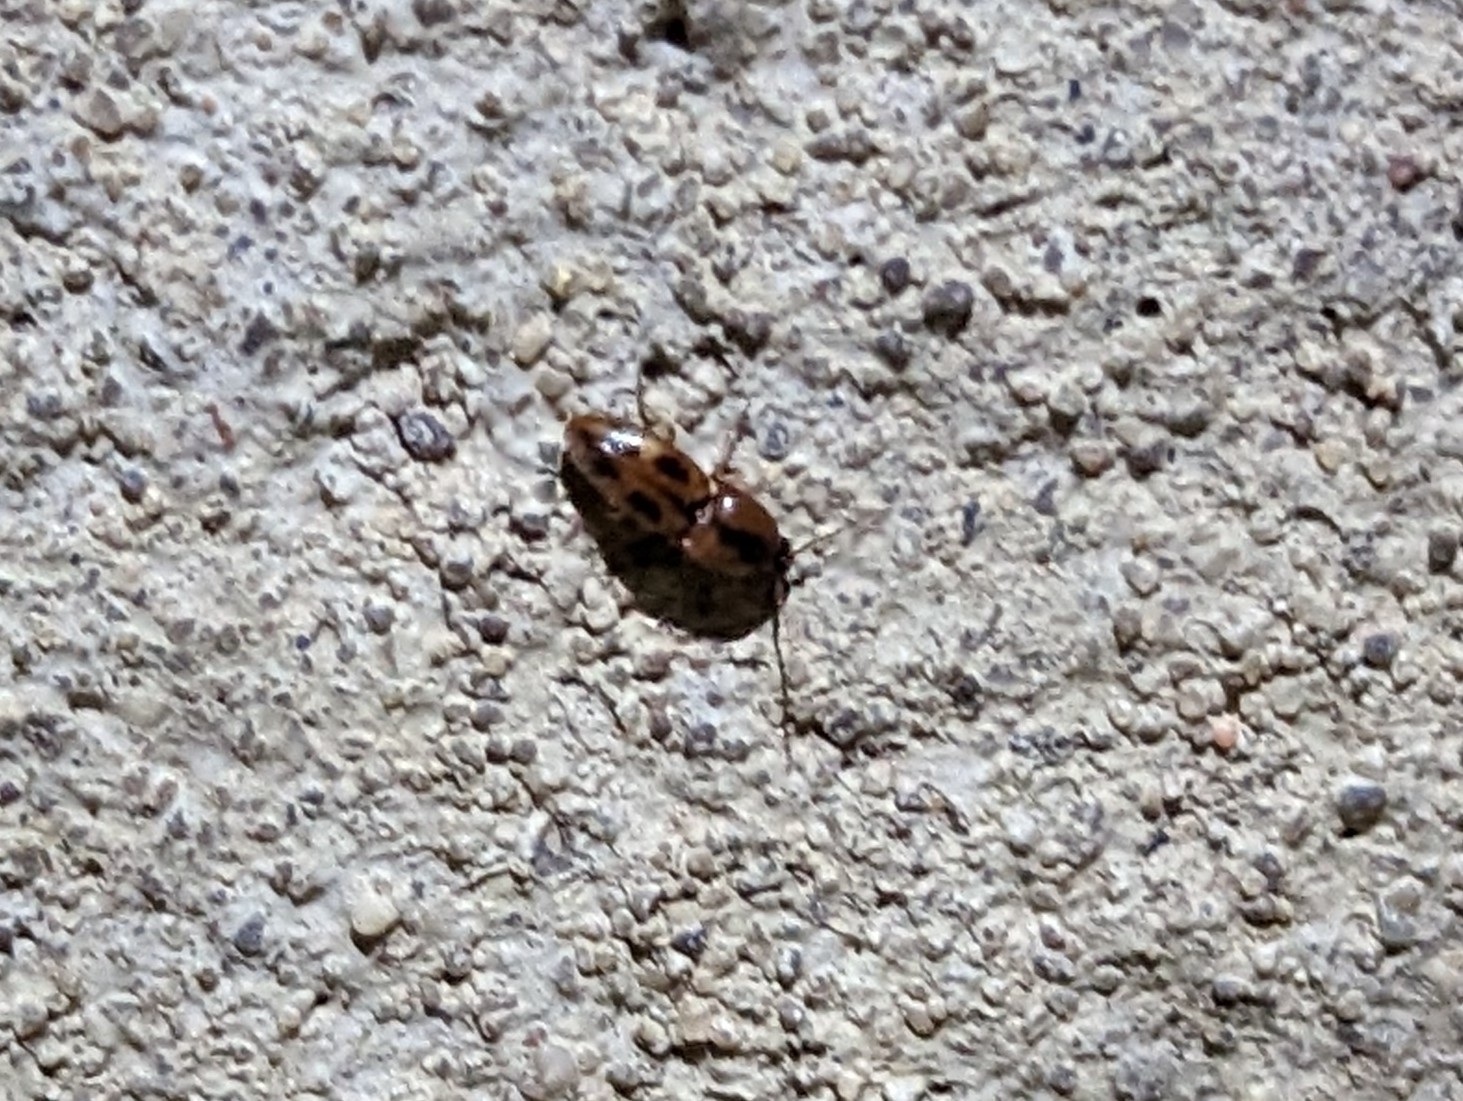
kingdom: Animalia
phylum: Arthropoda
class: Insecta
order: Coleoptera
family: Elateridae
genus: Aeolus
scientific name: Aeolus mellillus
